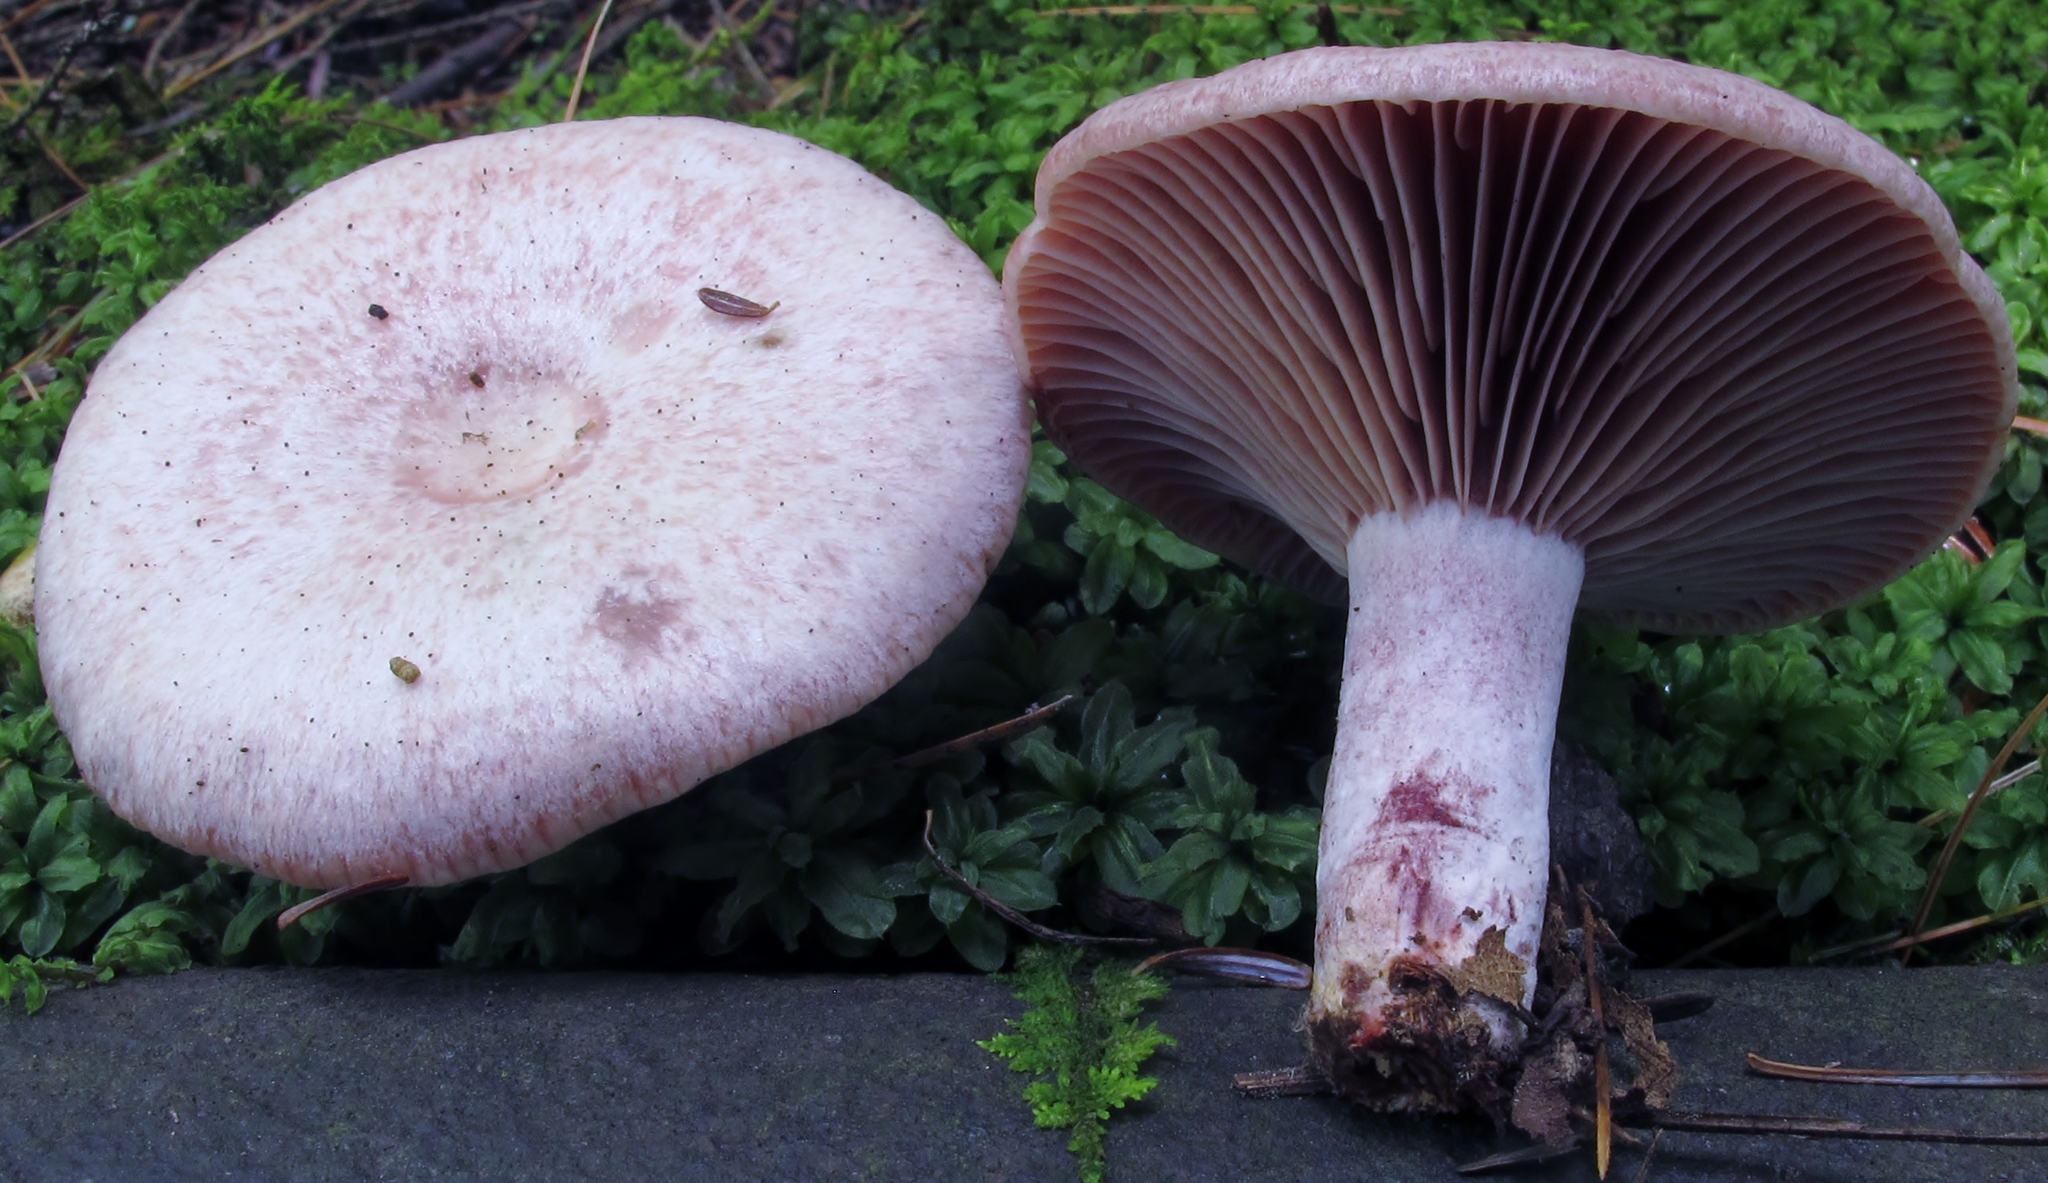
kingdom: Fungi
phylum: Basidiomycota
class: Agaricomycetes
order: Russulales
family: Russulaceae
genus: Lactarius
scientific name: Lactarius subpurpureus
